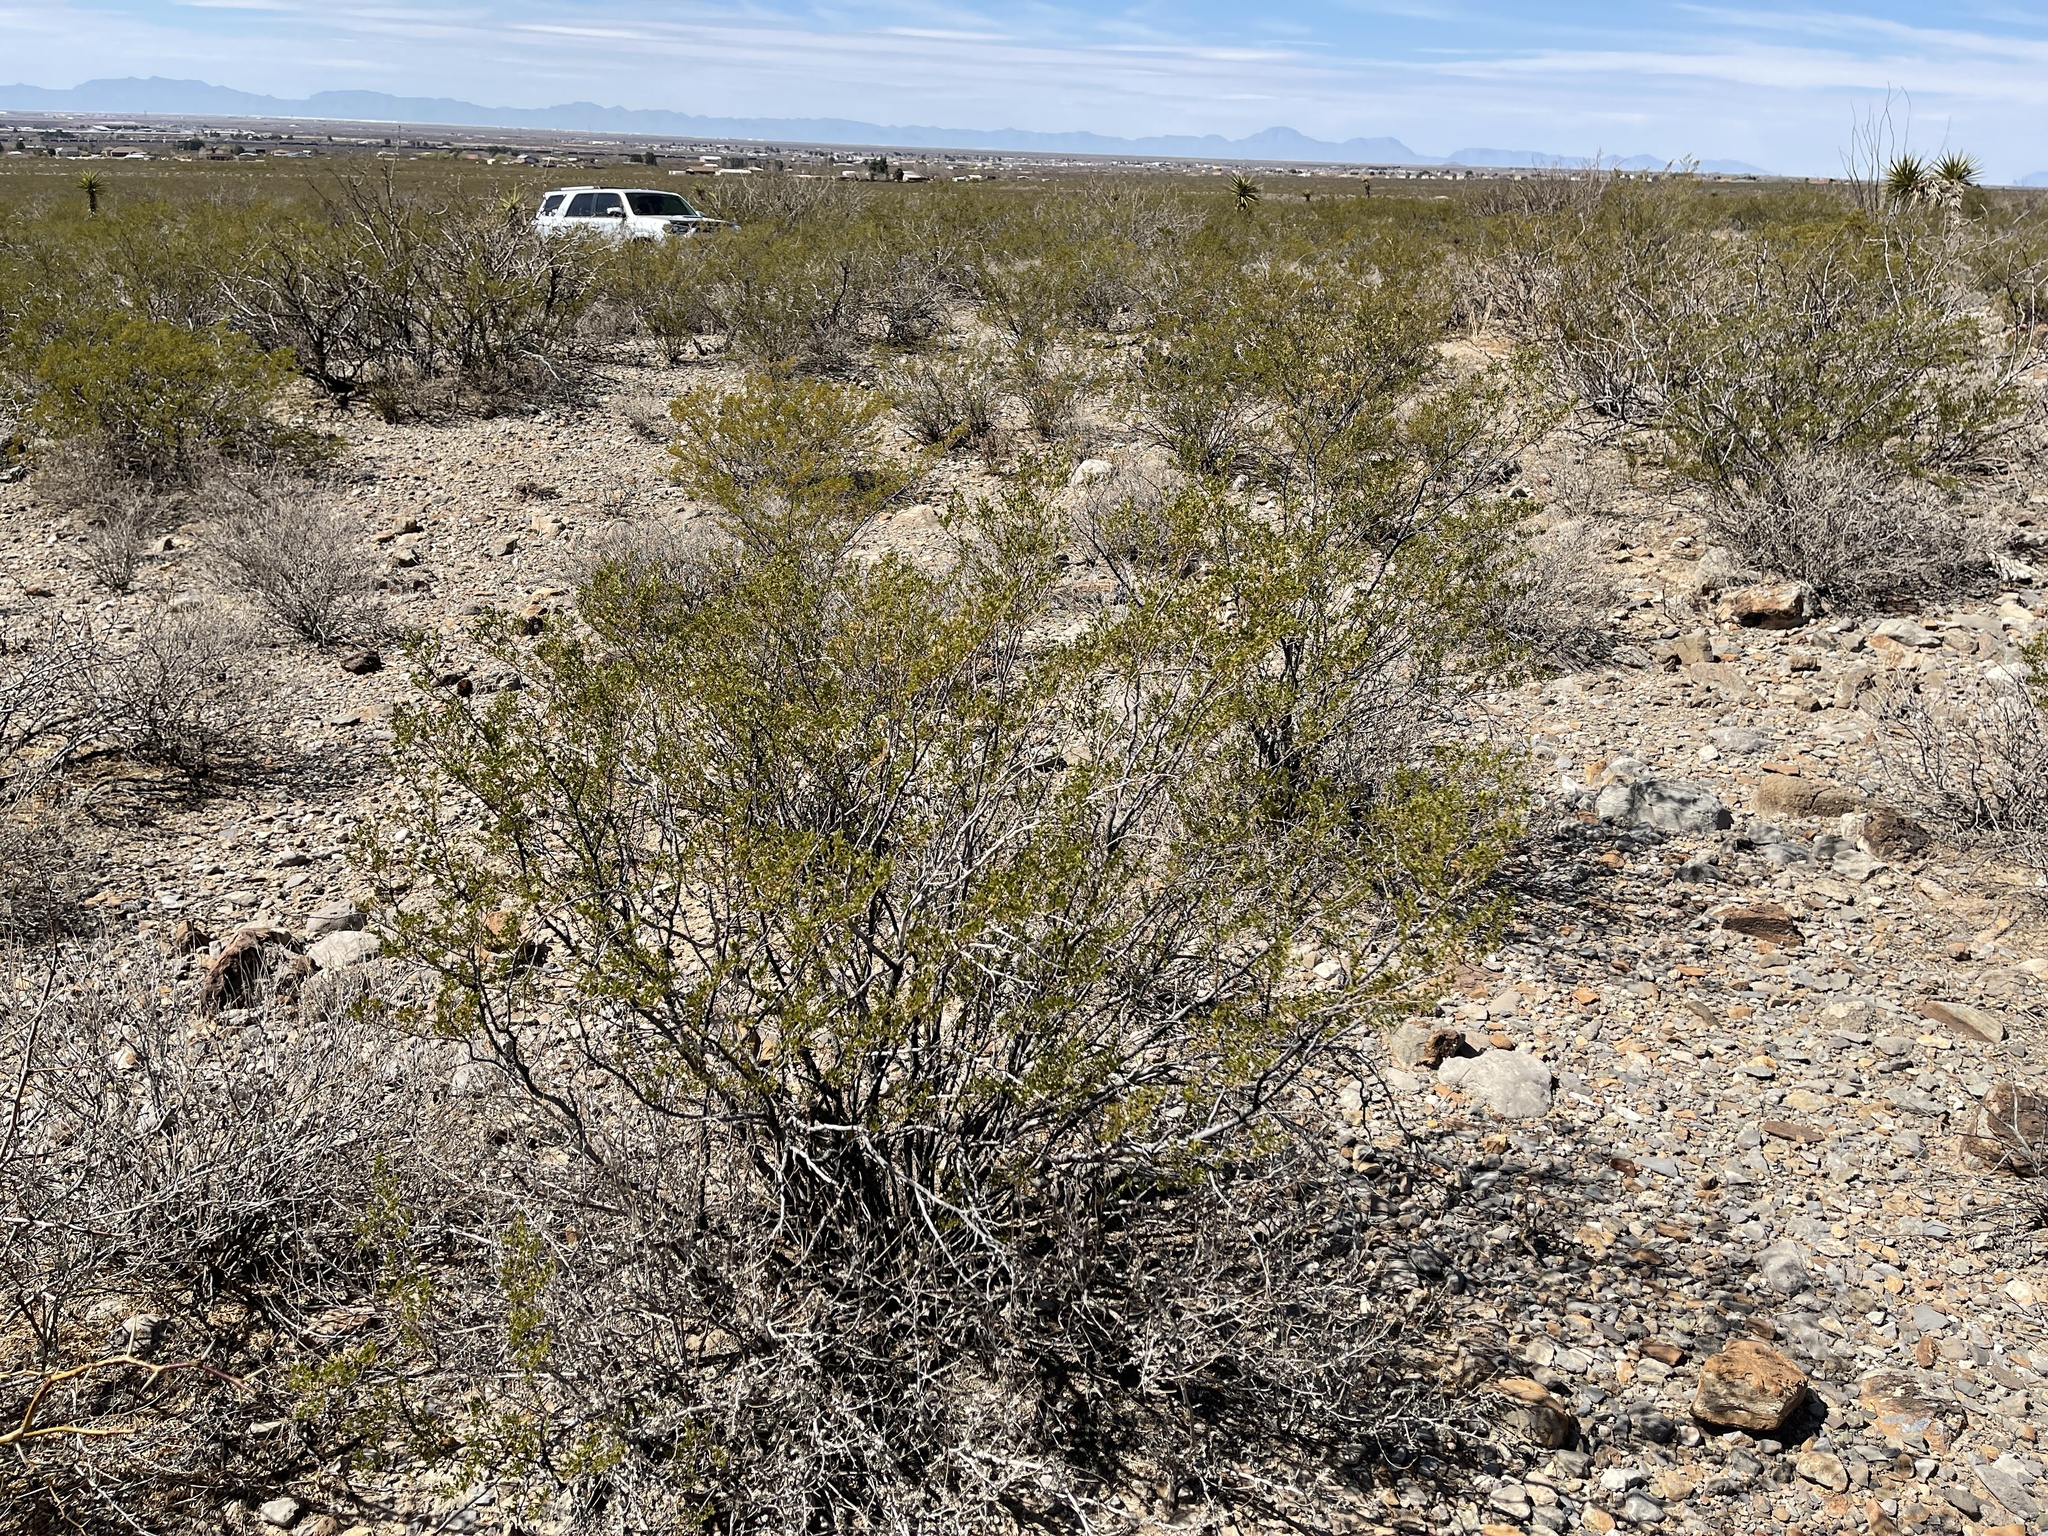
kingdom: Plantae
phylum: Tracheophyta
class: Magnoliopsida
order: Zygophyllales
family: Zygophyllaceae
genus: Larrea
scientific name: Larrea tridentata
